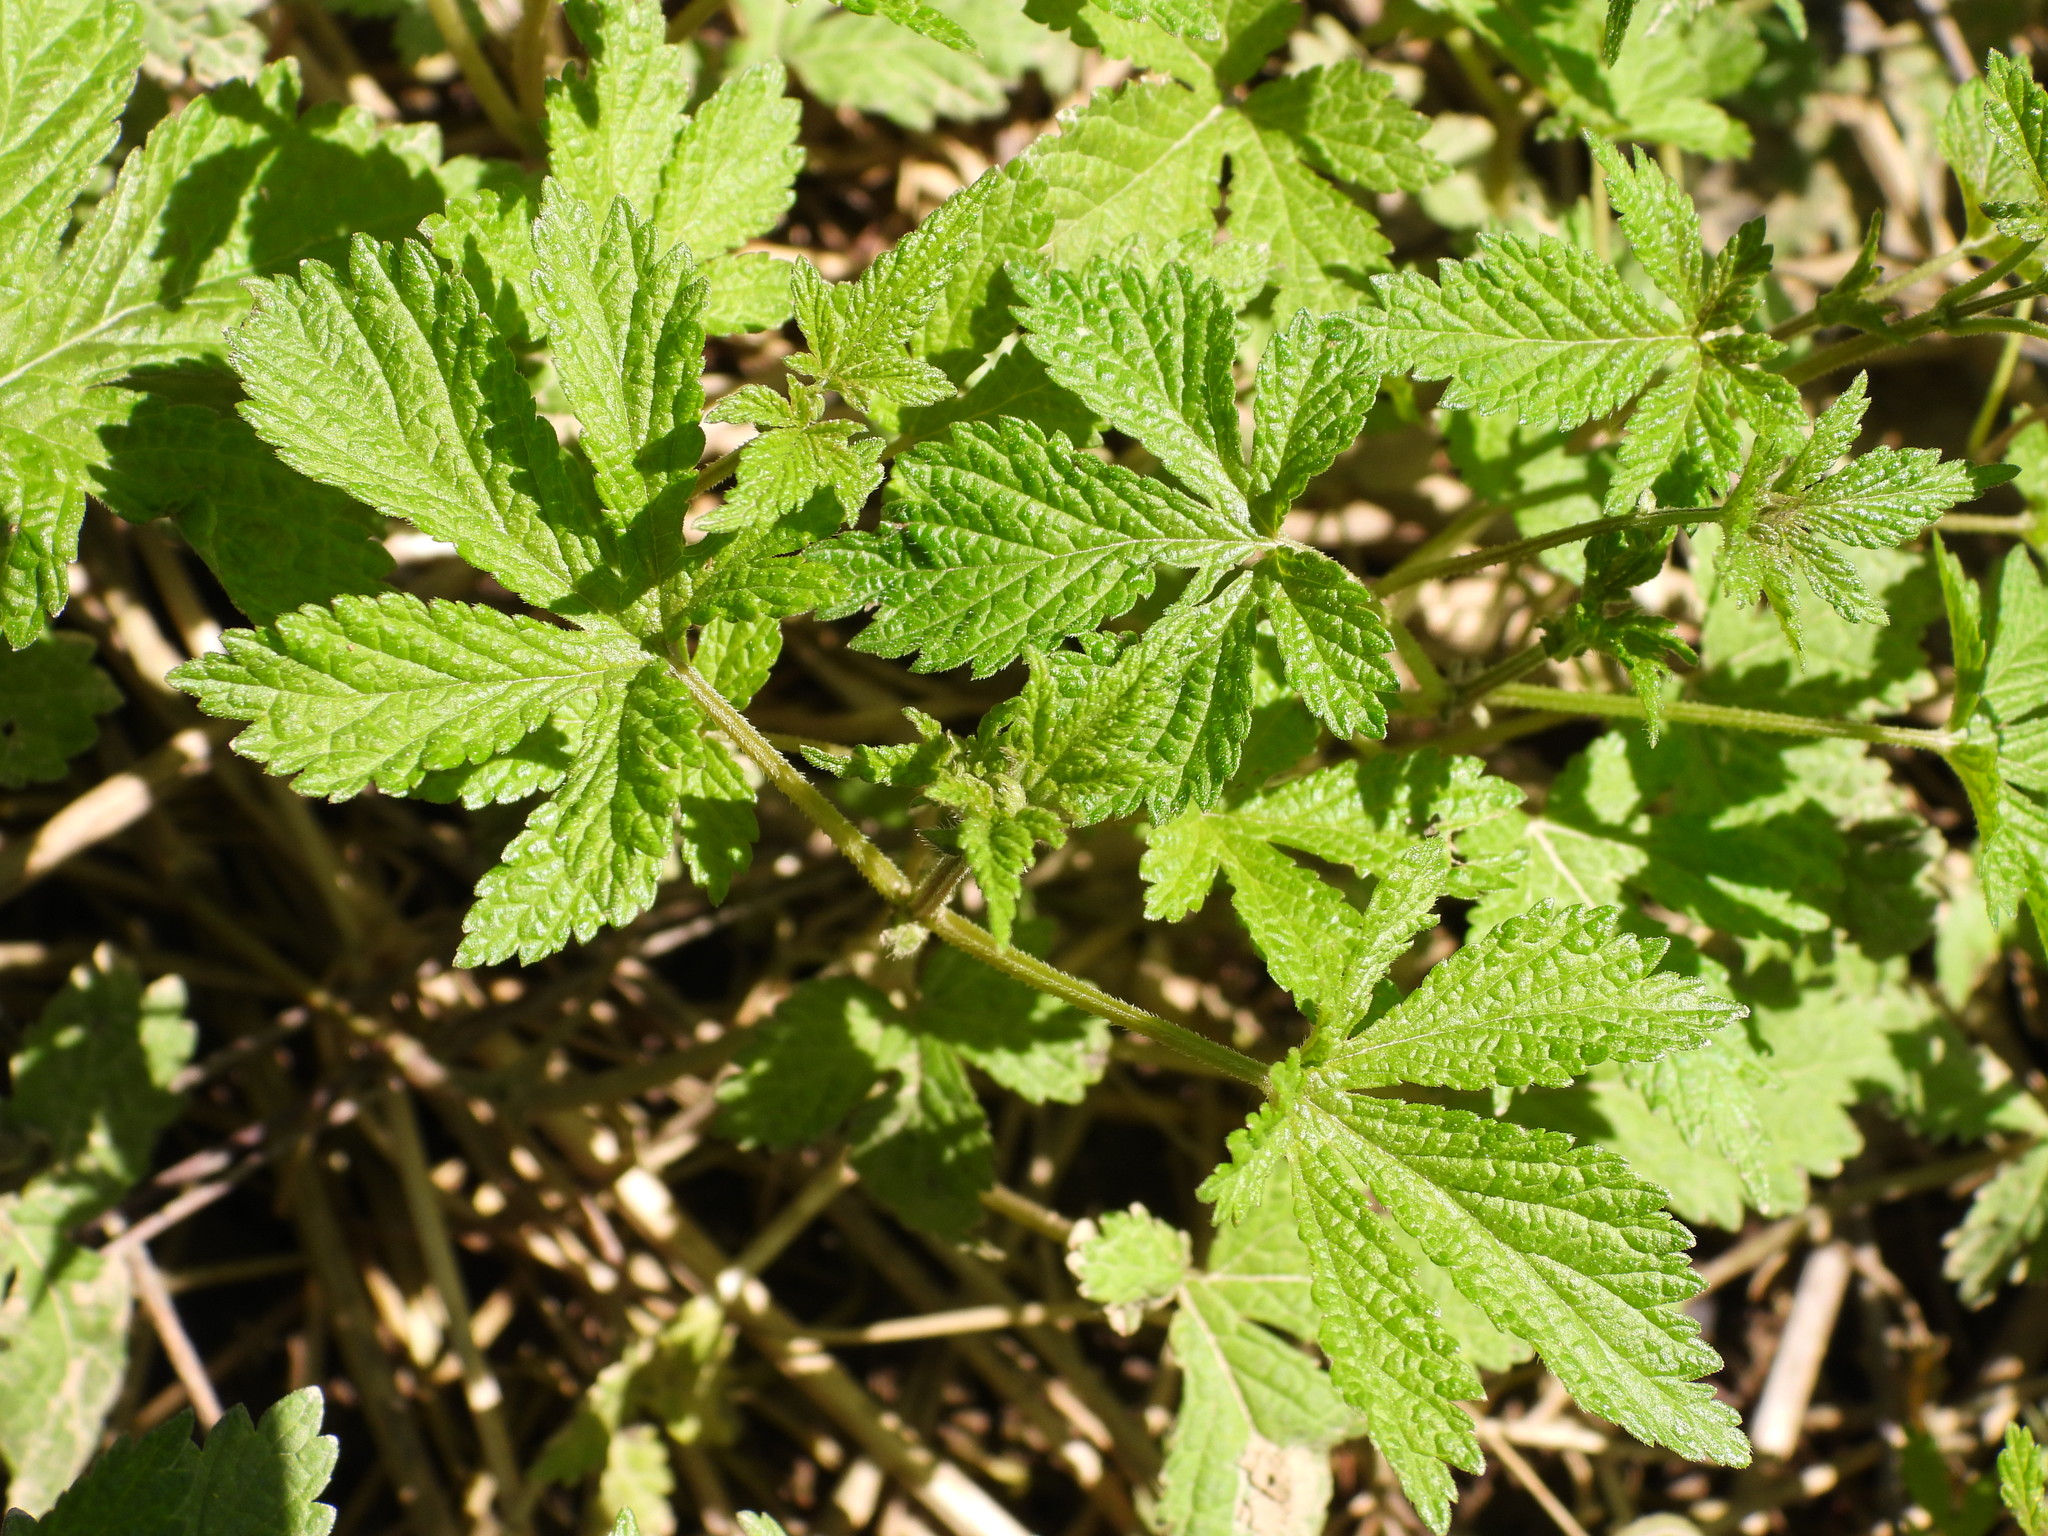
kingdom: Plantae
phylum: Tracheophyta
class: Magnoliopsida
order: Rosales
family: Cannabaceae
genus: Humulus
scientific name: Humulus scandens
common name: Japanese hop
